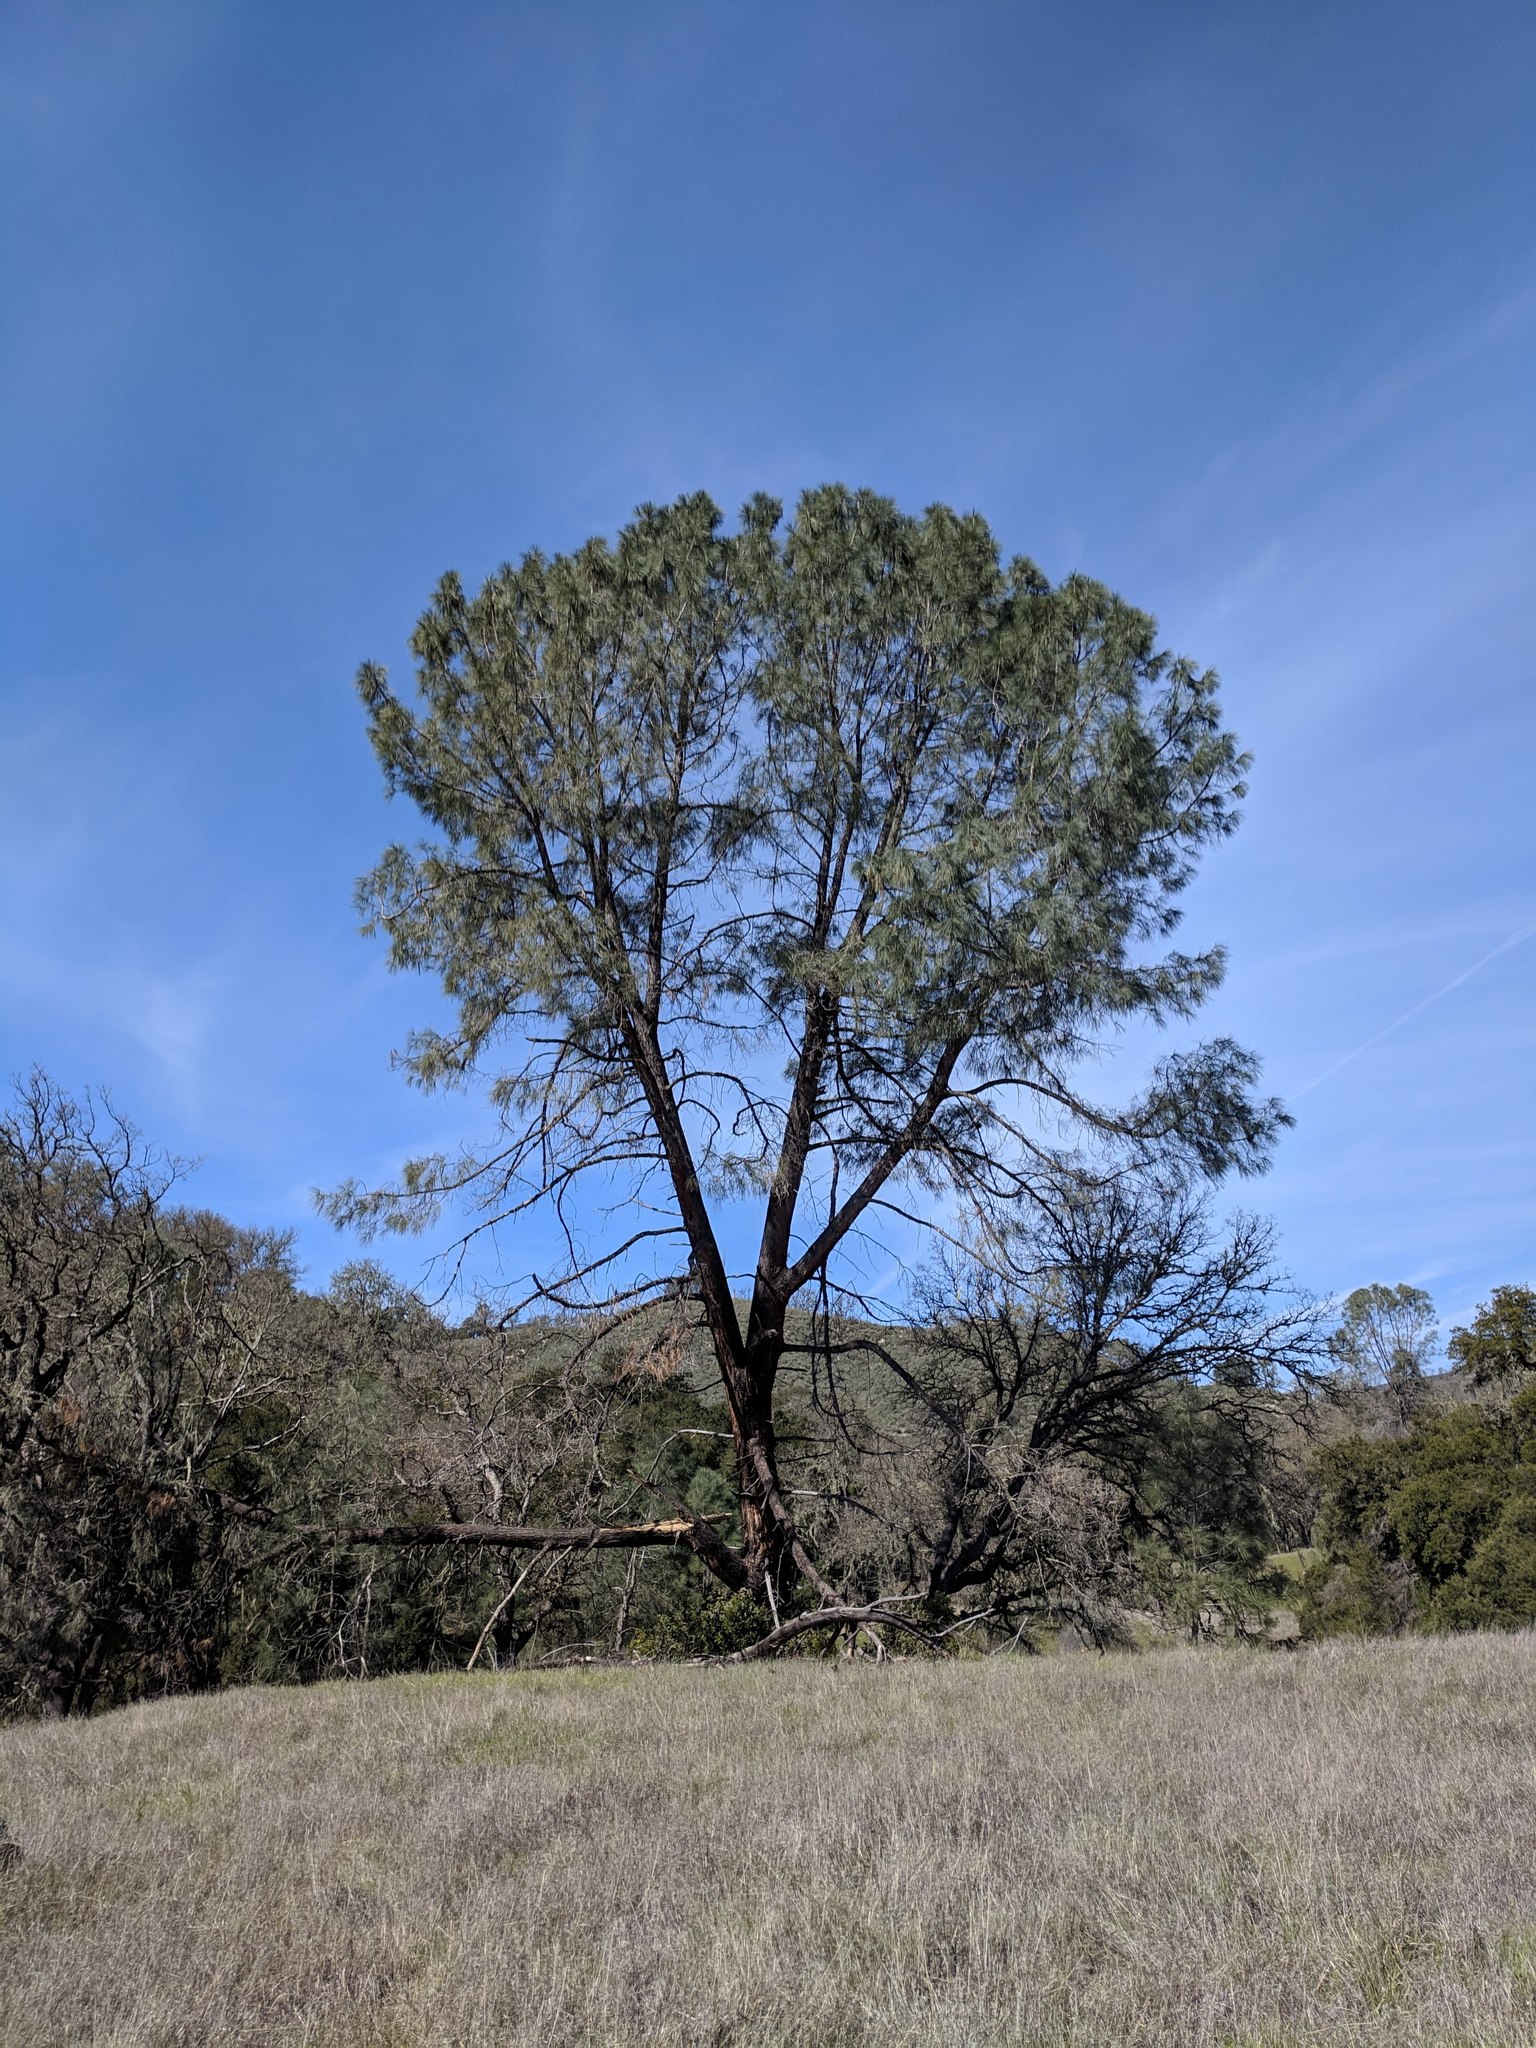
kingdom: Plantae
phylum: Tracheophyta
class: Pinopsida
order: Pinales
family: Pinaceae
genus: Pinus
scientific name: Pinus sabiniana
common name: Bull pine
